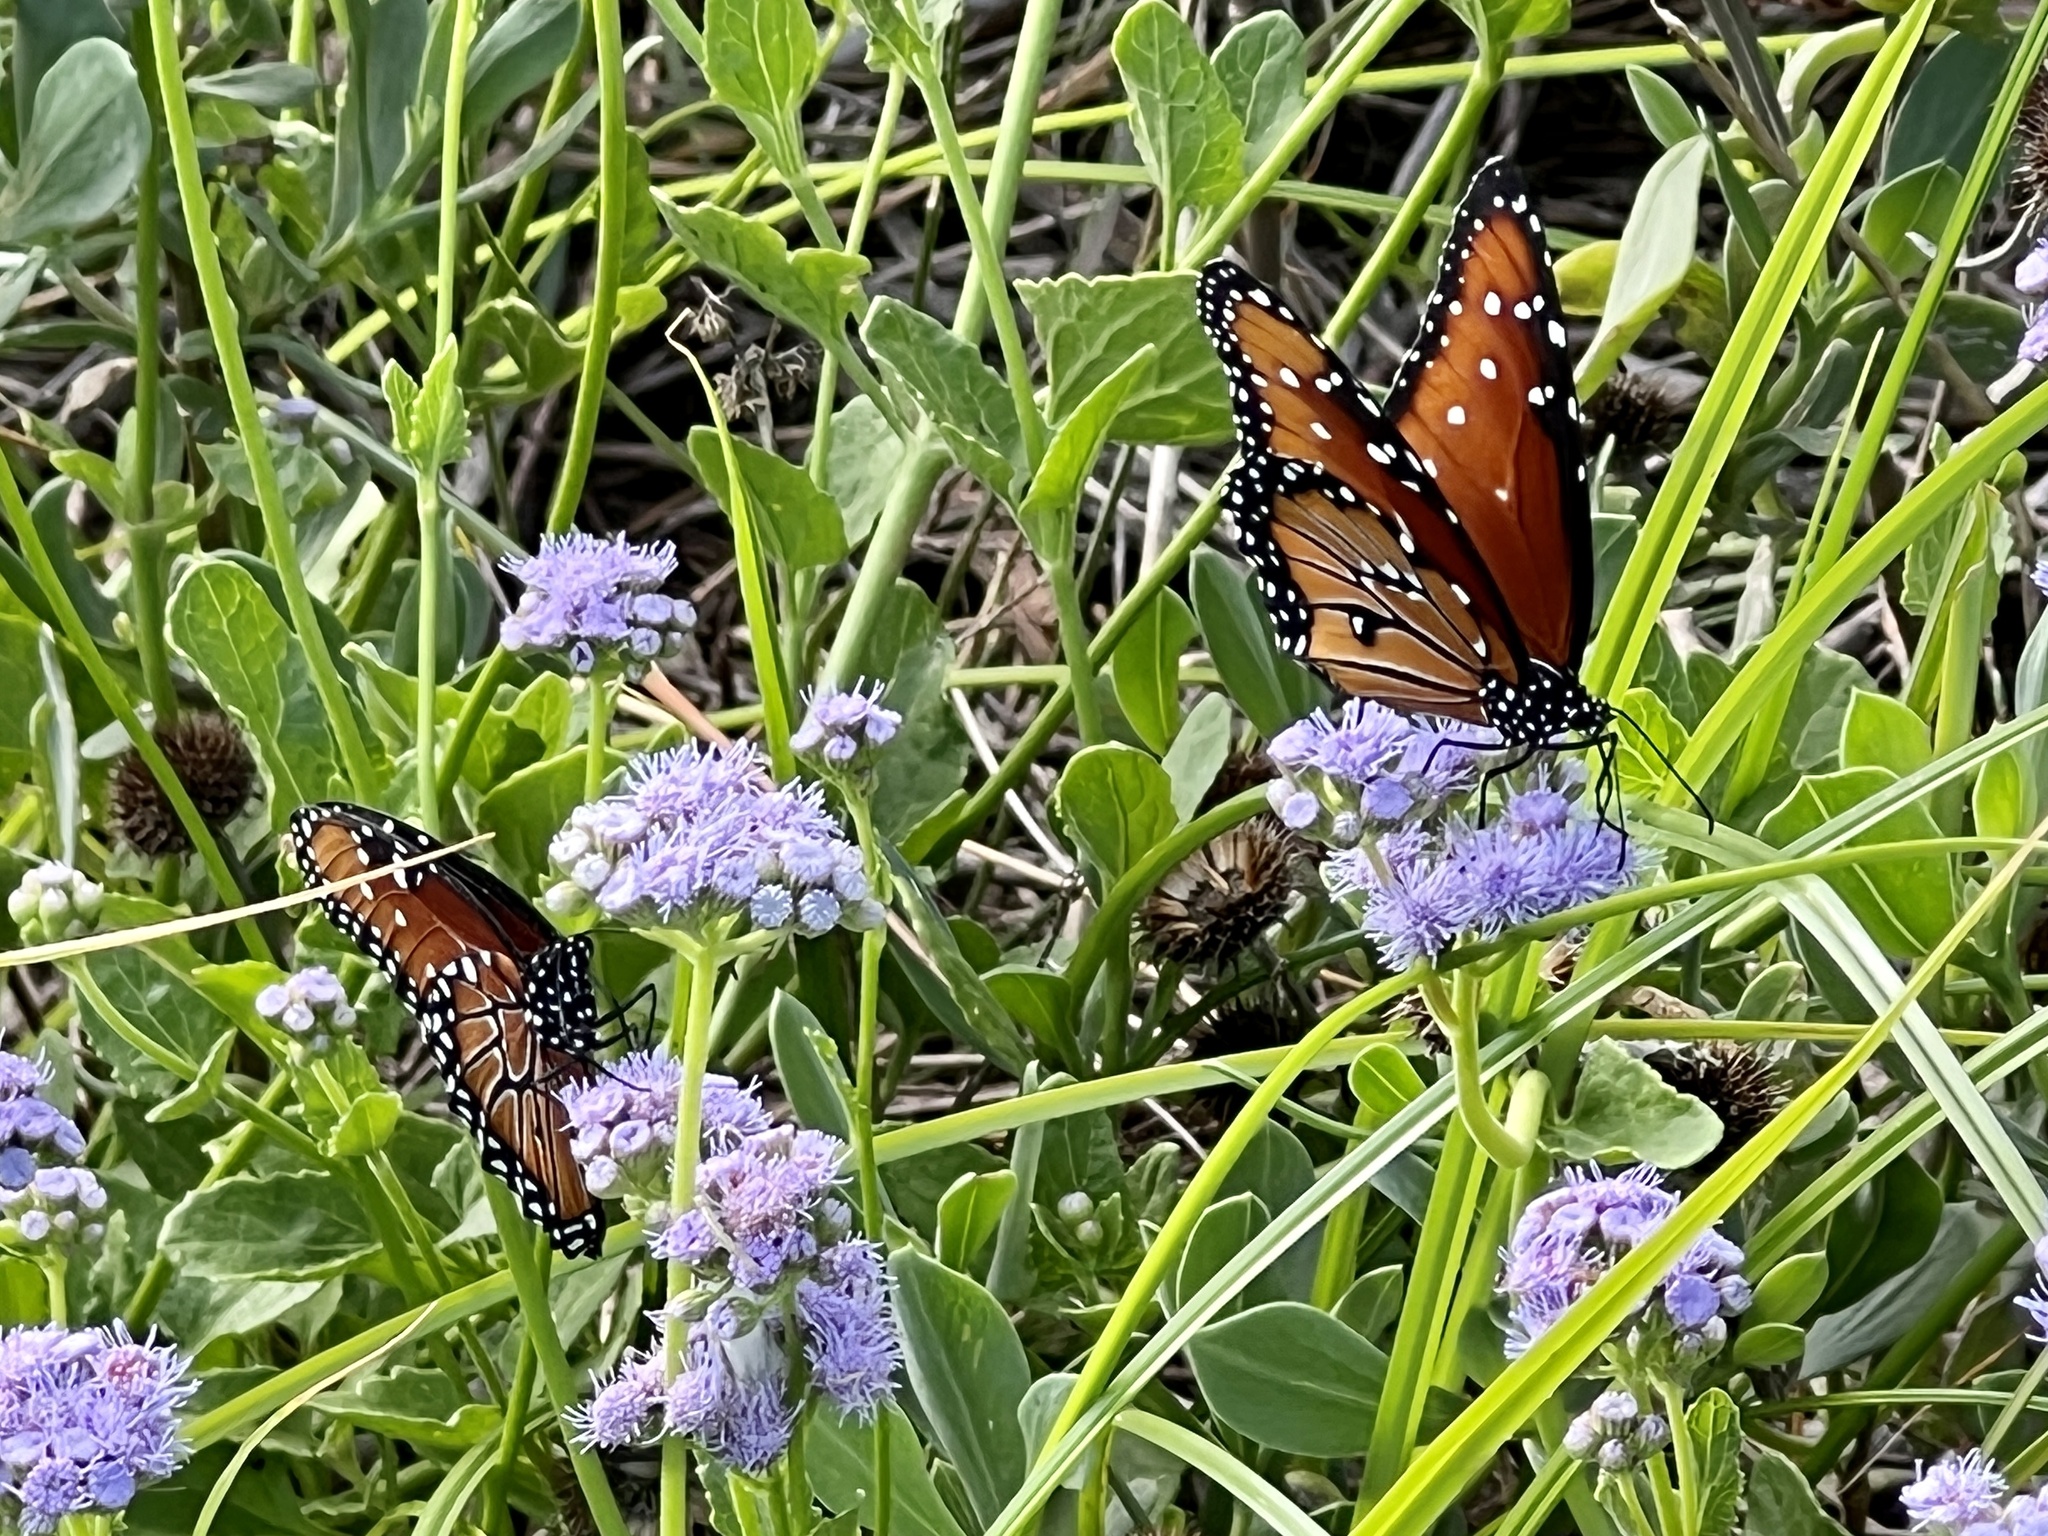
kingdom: Animalia
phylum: Arthropoda
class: Insecta
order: Lepidoptera
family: Nymphalidae
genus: Danaus
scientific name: Danaus gilippus
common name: Queen
